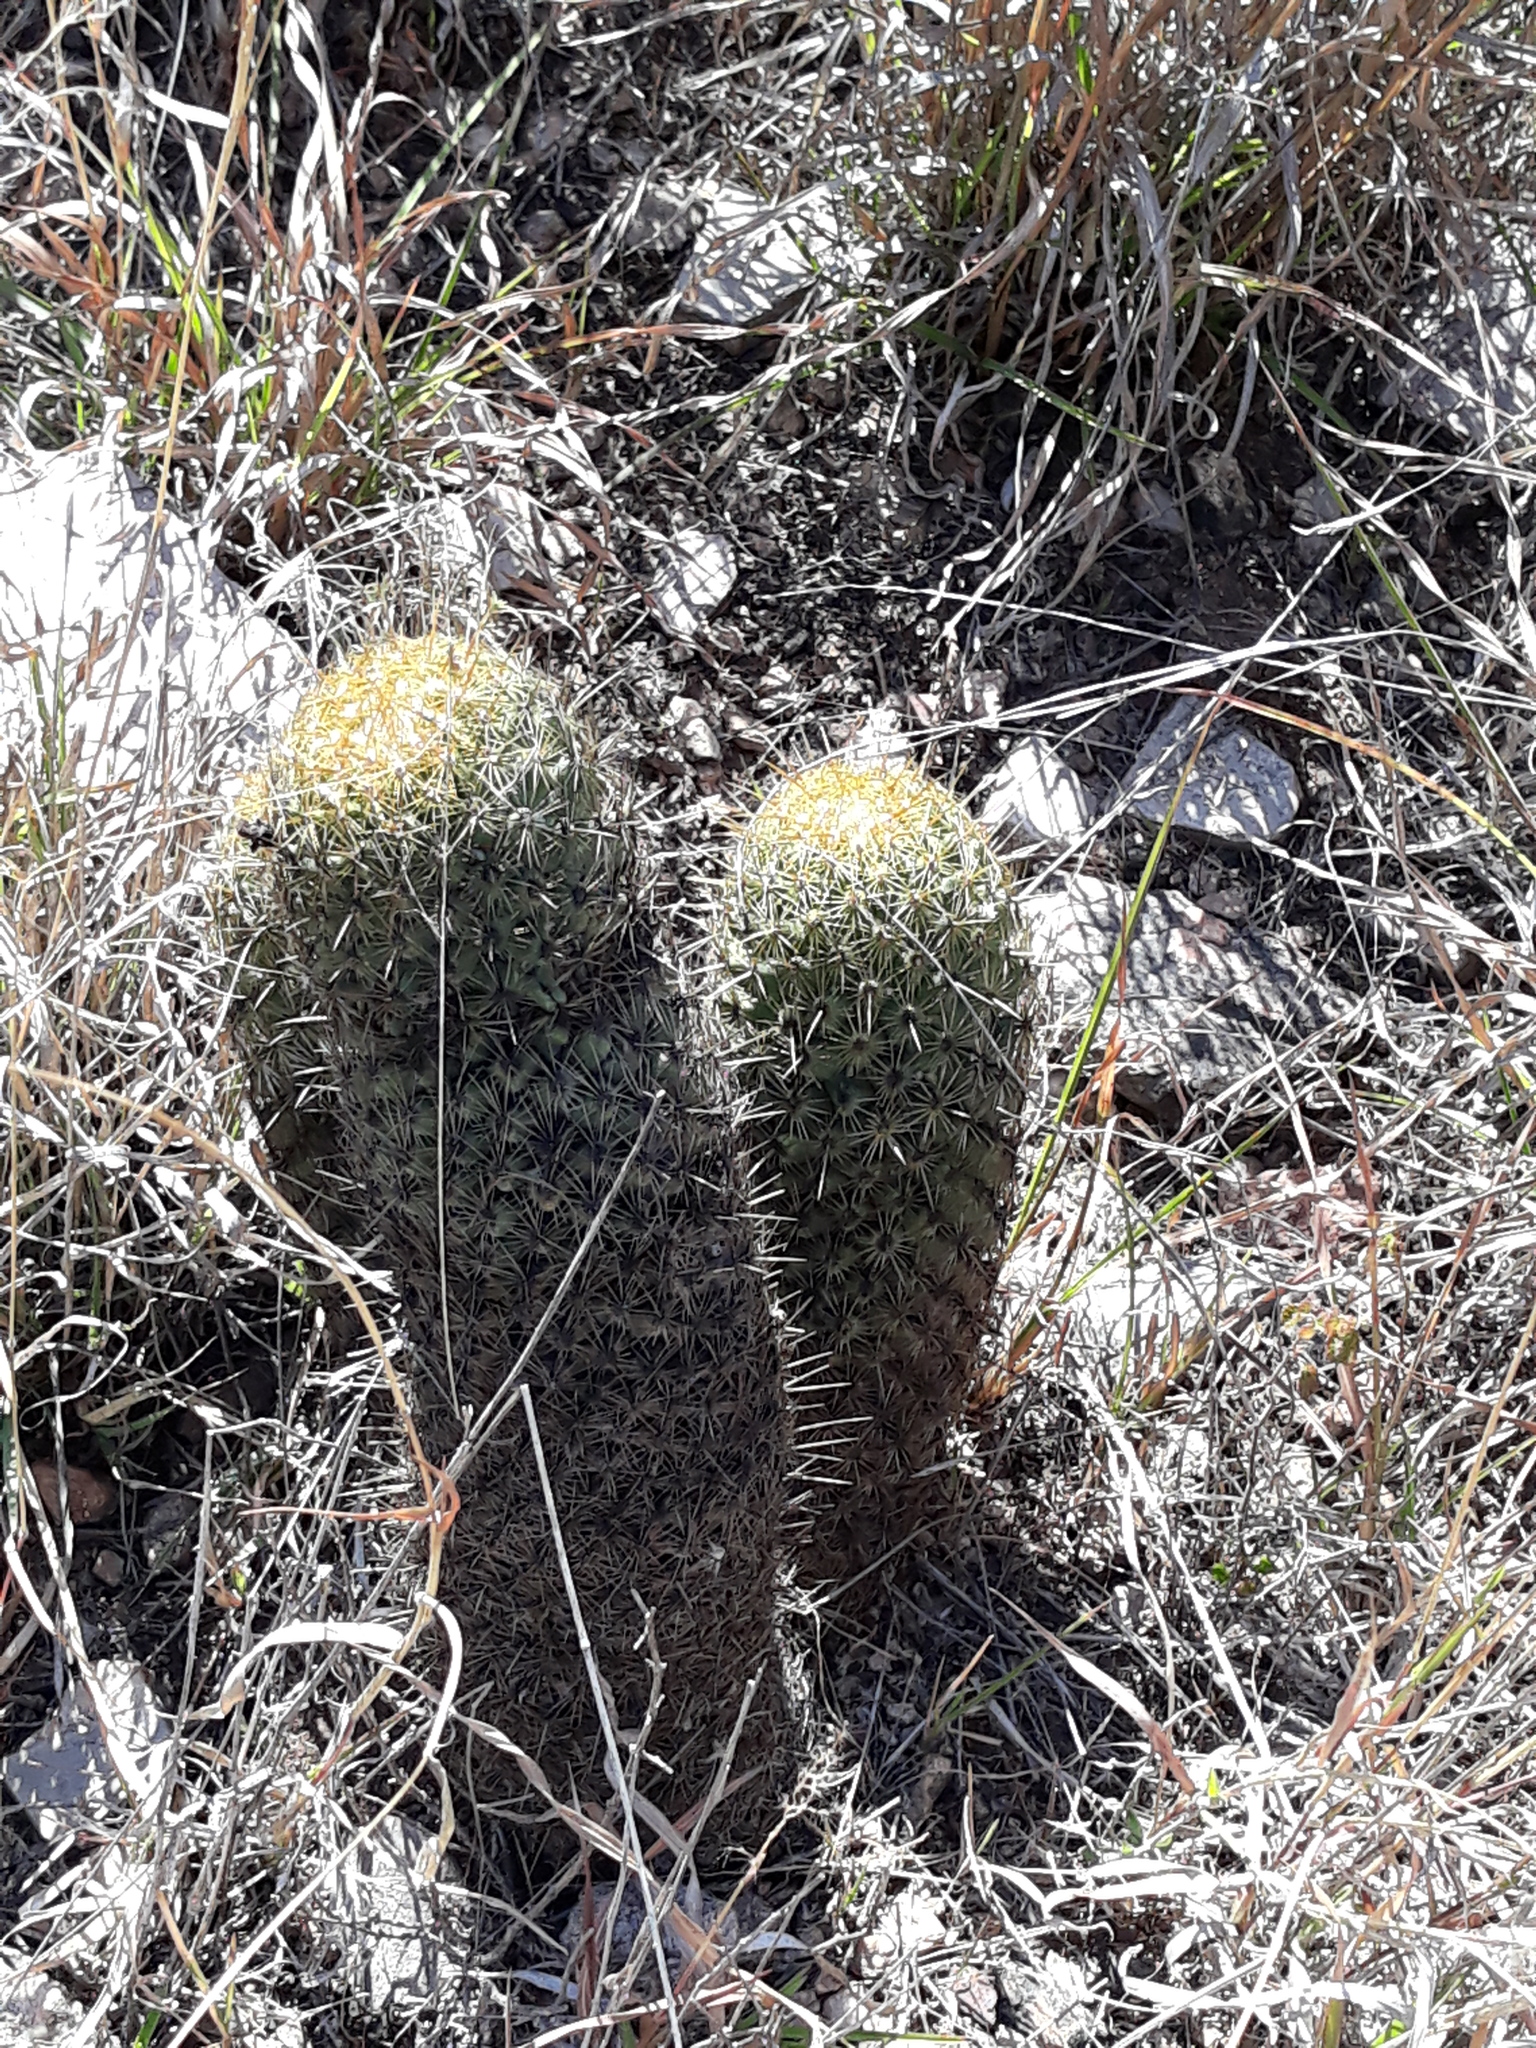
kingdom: Plantae
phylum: Tracheophyta
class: Magnoliopsida
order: Caryophyllales
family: Cactaceae
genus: Coryphantha
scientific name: Coryphantha erecta
